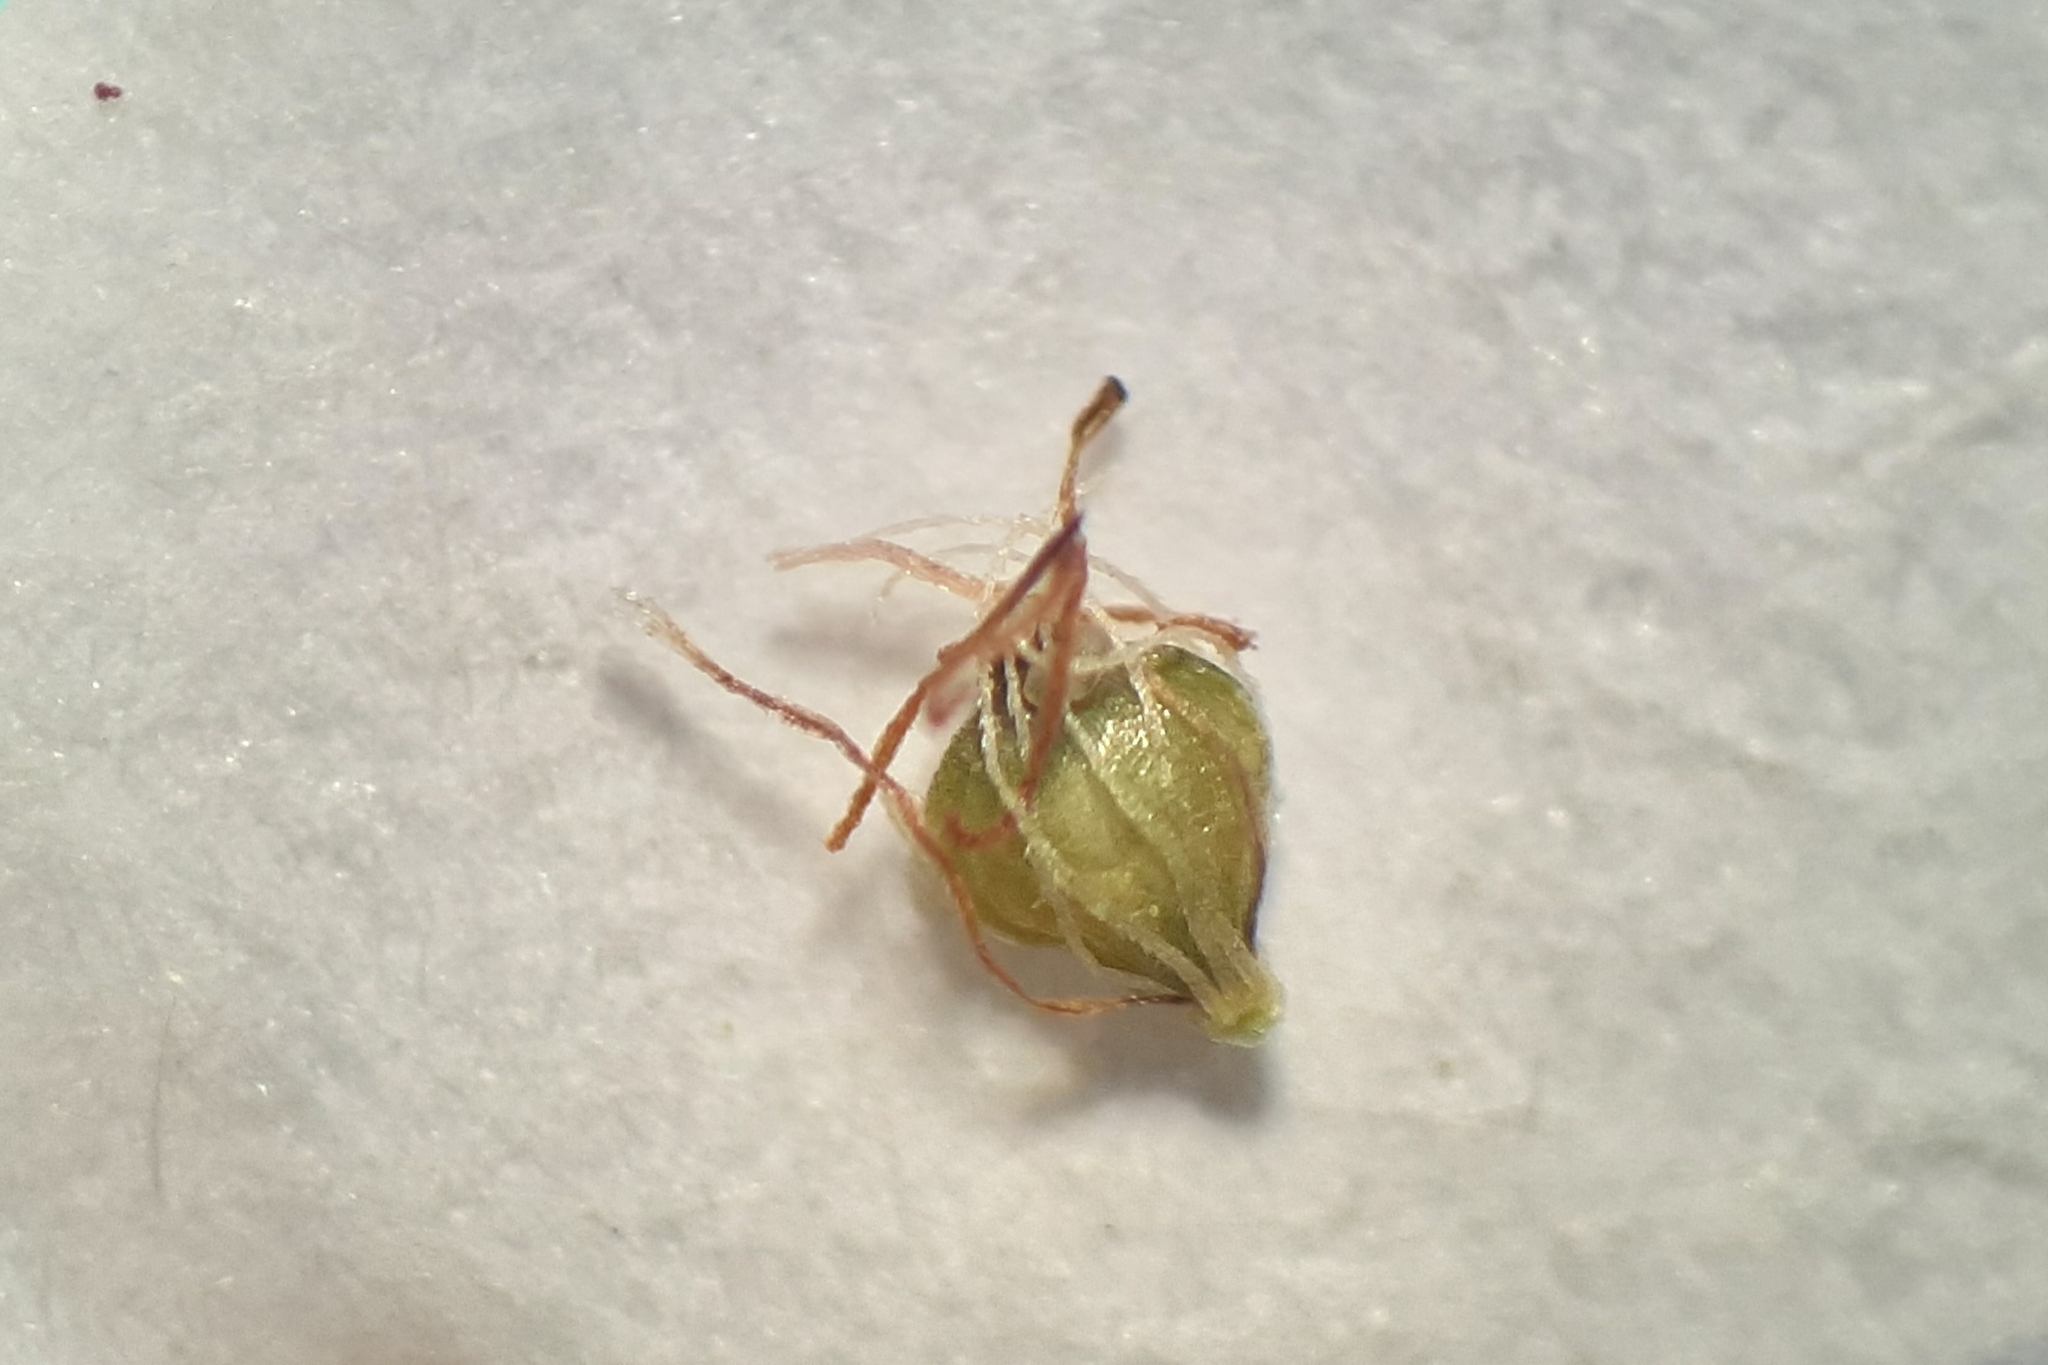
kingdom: Plantae
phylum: Tracheophyta
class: Liliopsida
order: Poales
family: Cyperaceae
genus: Eleocharis
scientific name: Eleocharis flavescens
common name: Yellow spikerush
